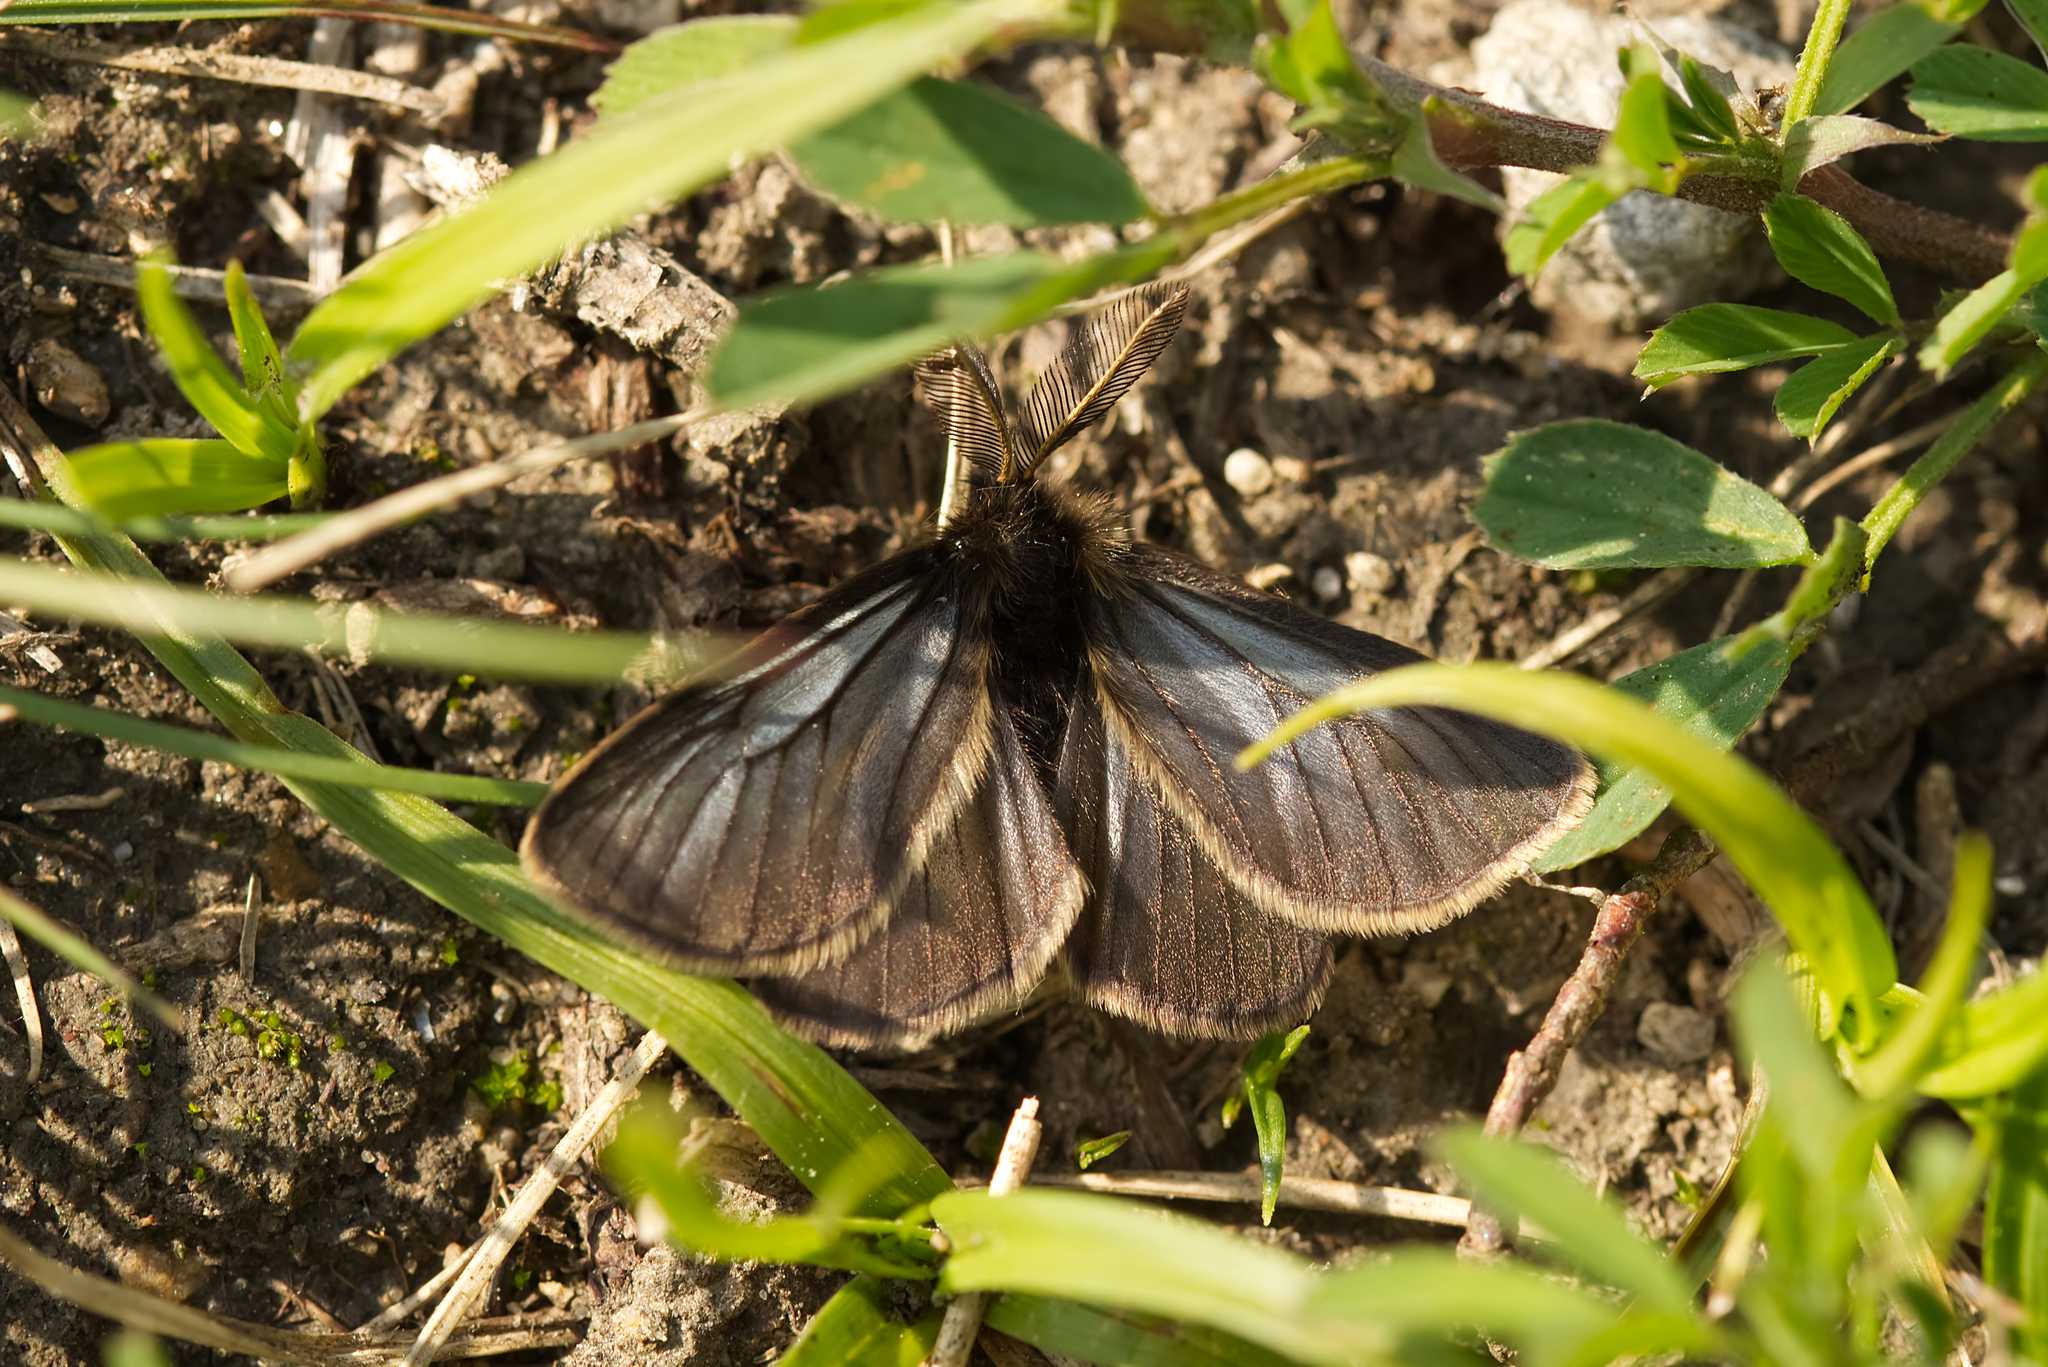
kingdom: Animalia
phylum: Arthropoda
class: Insecta
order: Lepidoptera
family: Erebidae
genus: Penthophera
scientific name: Penthophera morio
